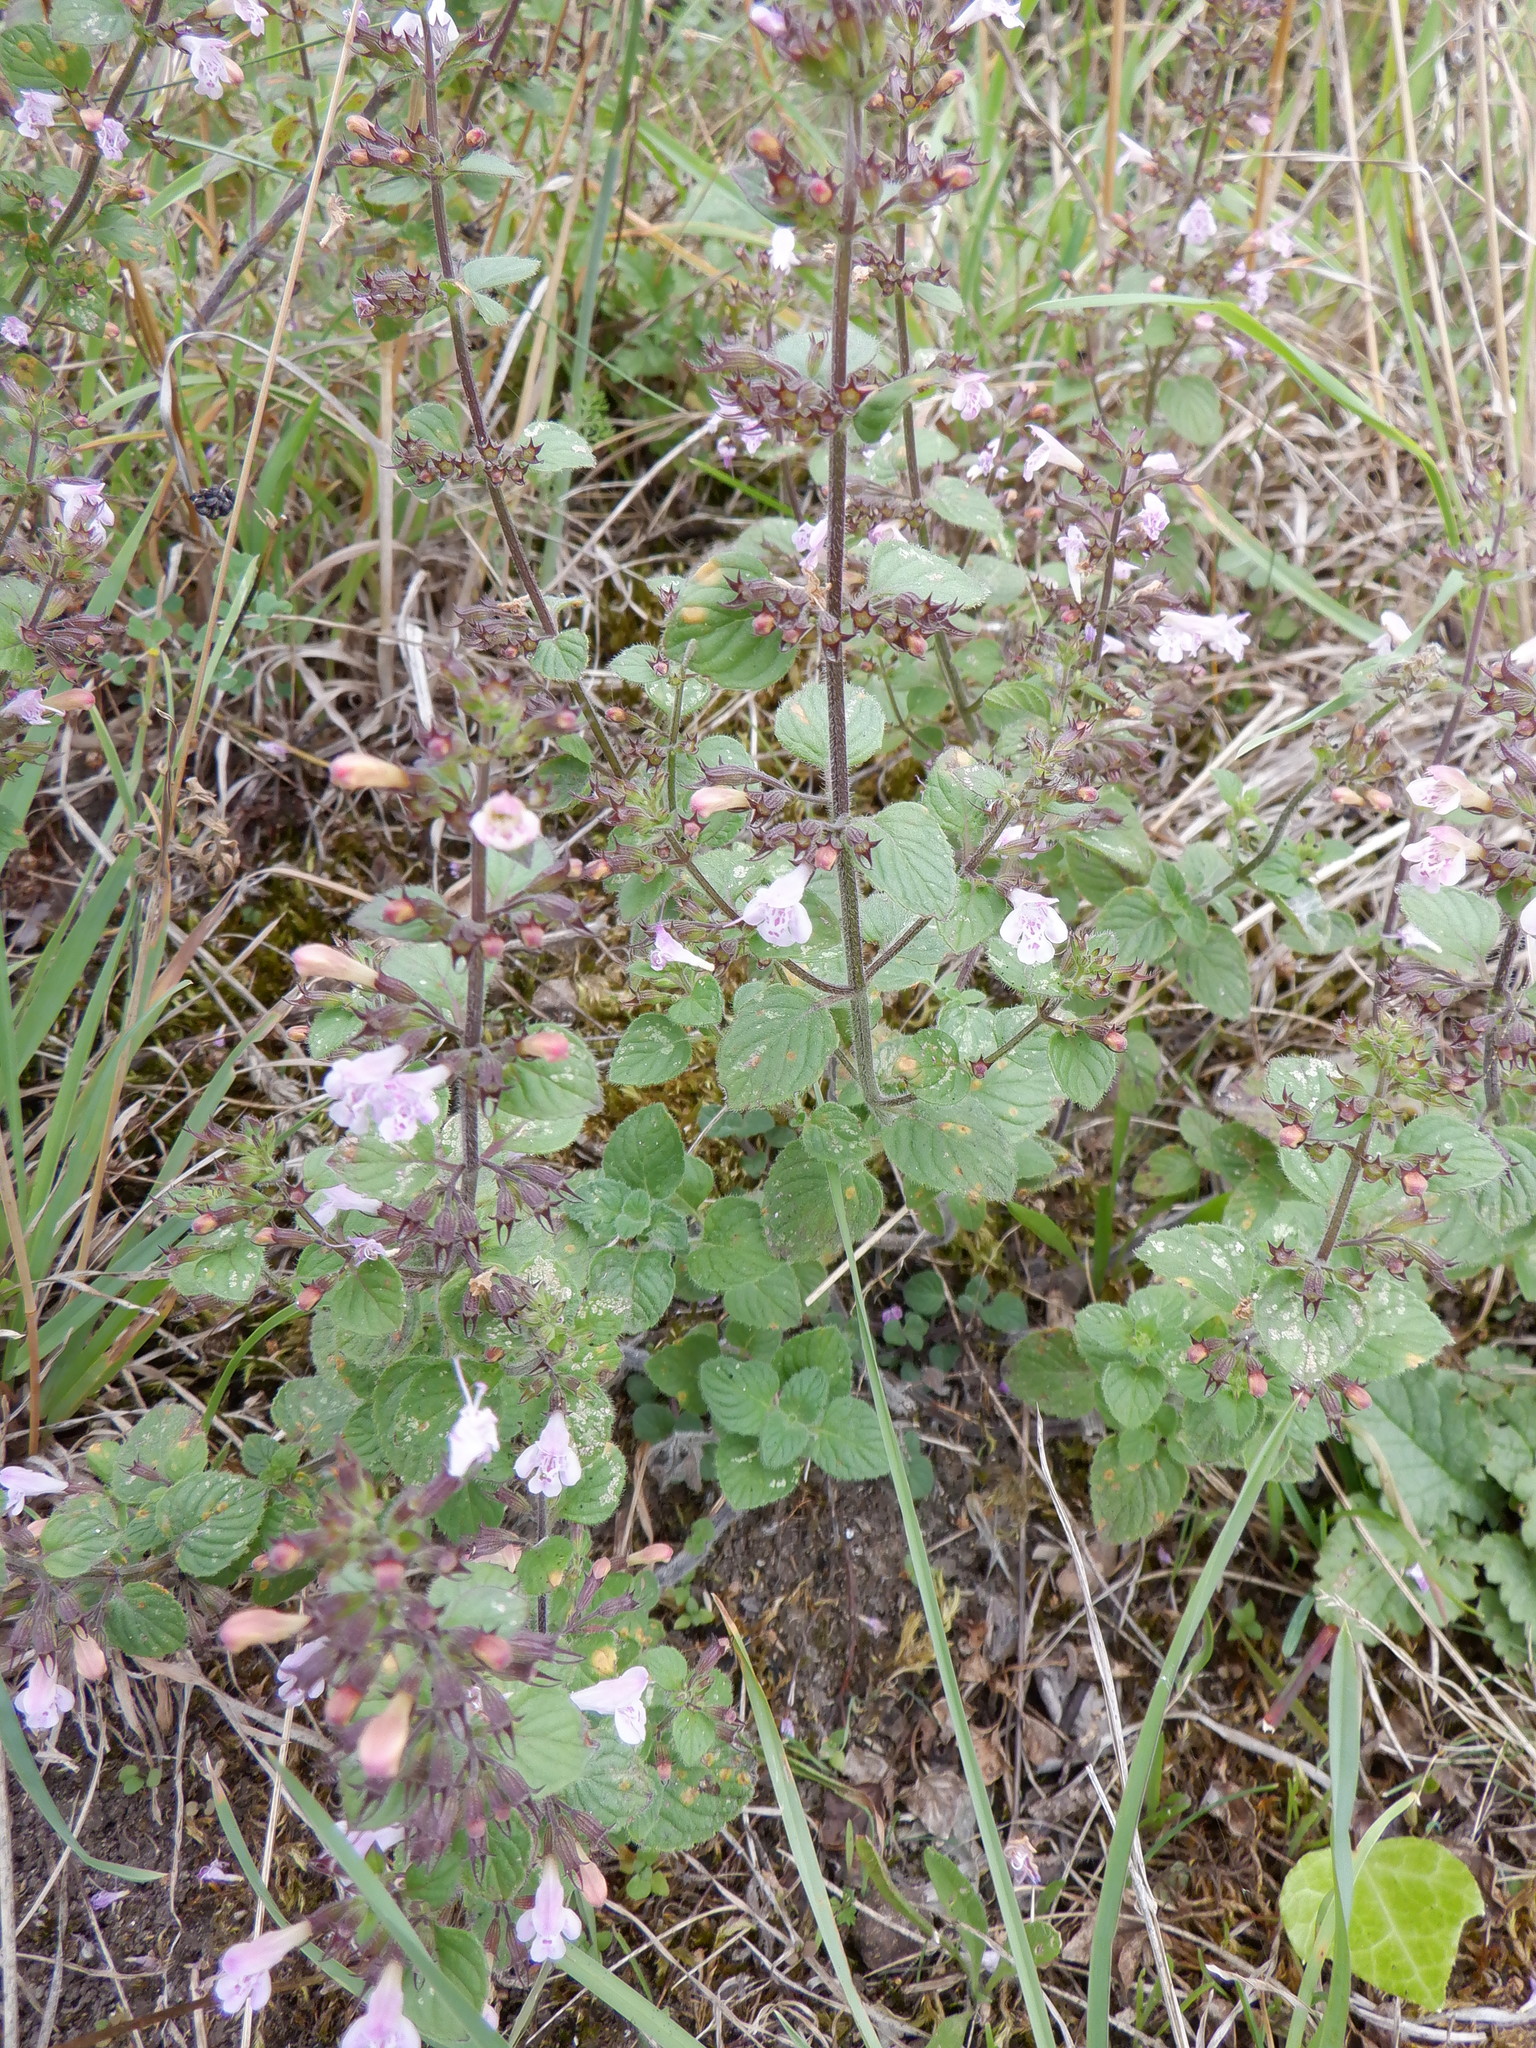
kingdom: Plantae
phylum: Tracheophyta
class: Magnoliopsida
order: Lamiales
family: Lamiaceae
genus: Clinopodium
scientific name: Clinopodium menthifolium
